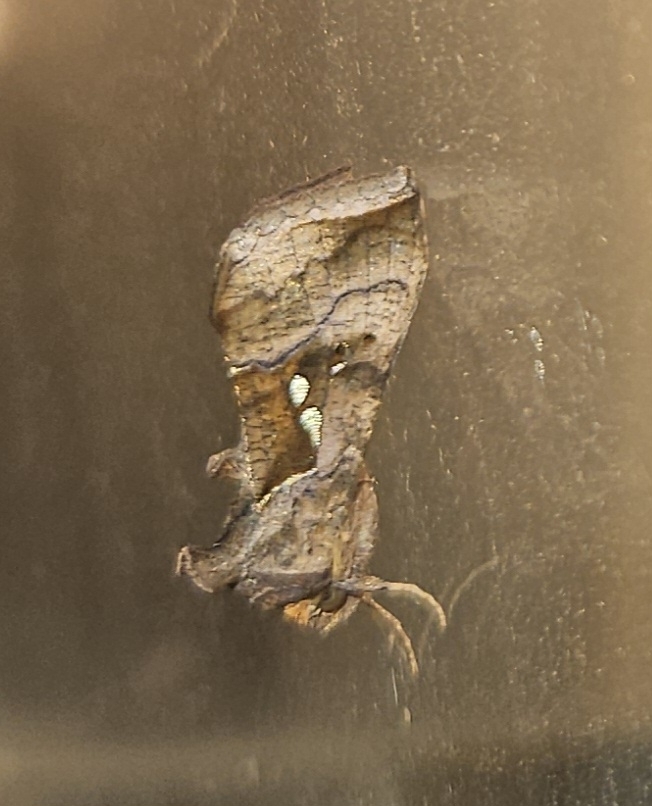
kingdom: Animalia
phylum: Arthropoda
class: Insecta
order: Lepidoptera
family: Noctuidae
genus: Enigmogramma
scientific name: Enigmogramma basigera
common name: Pink-washed looper moth
